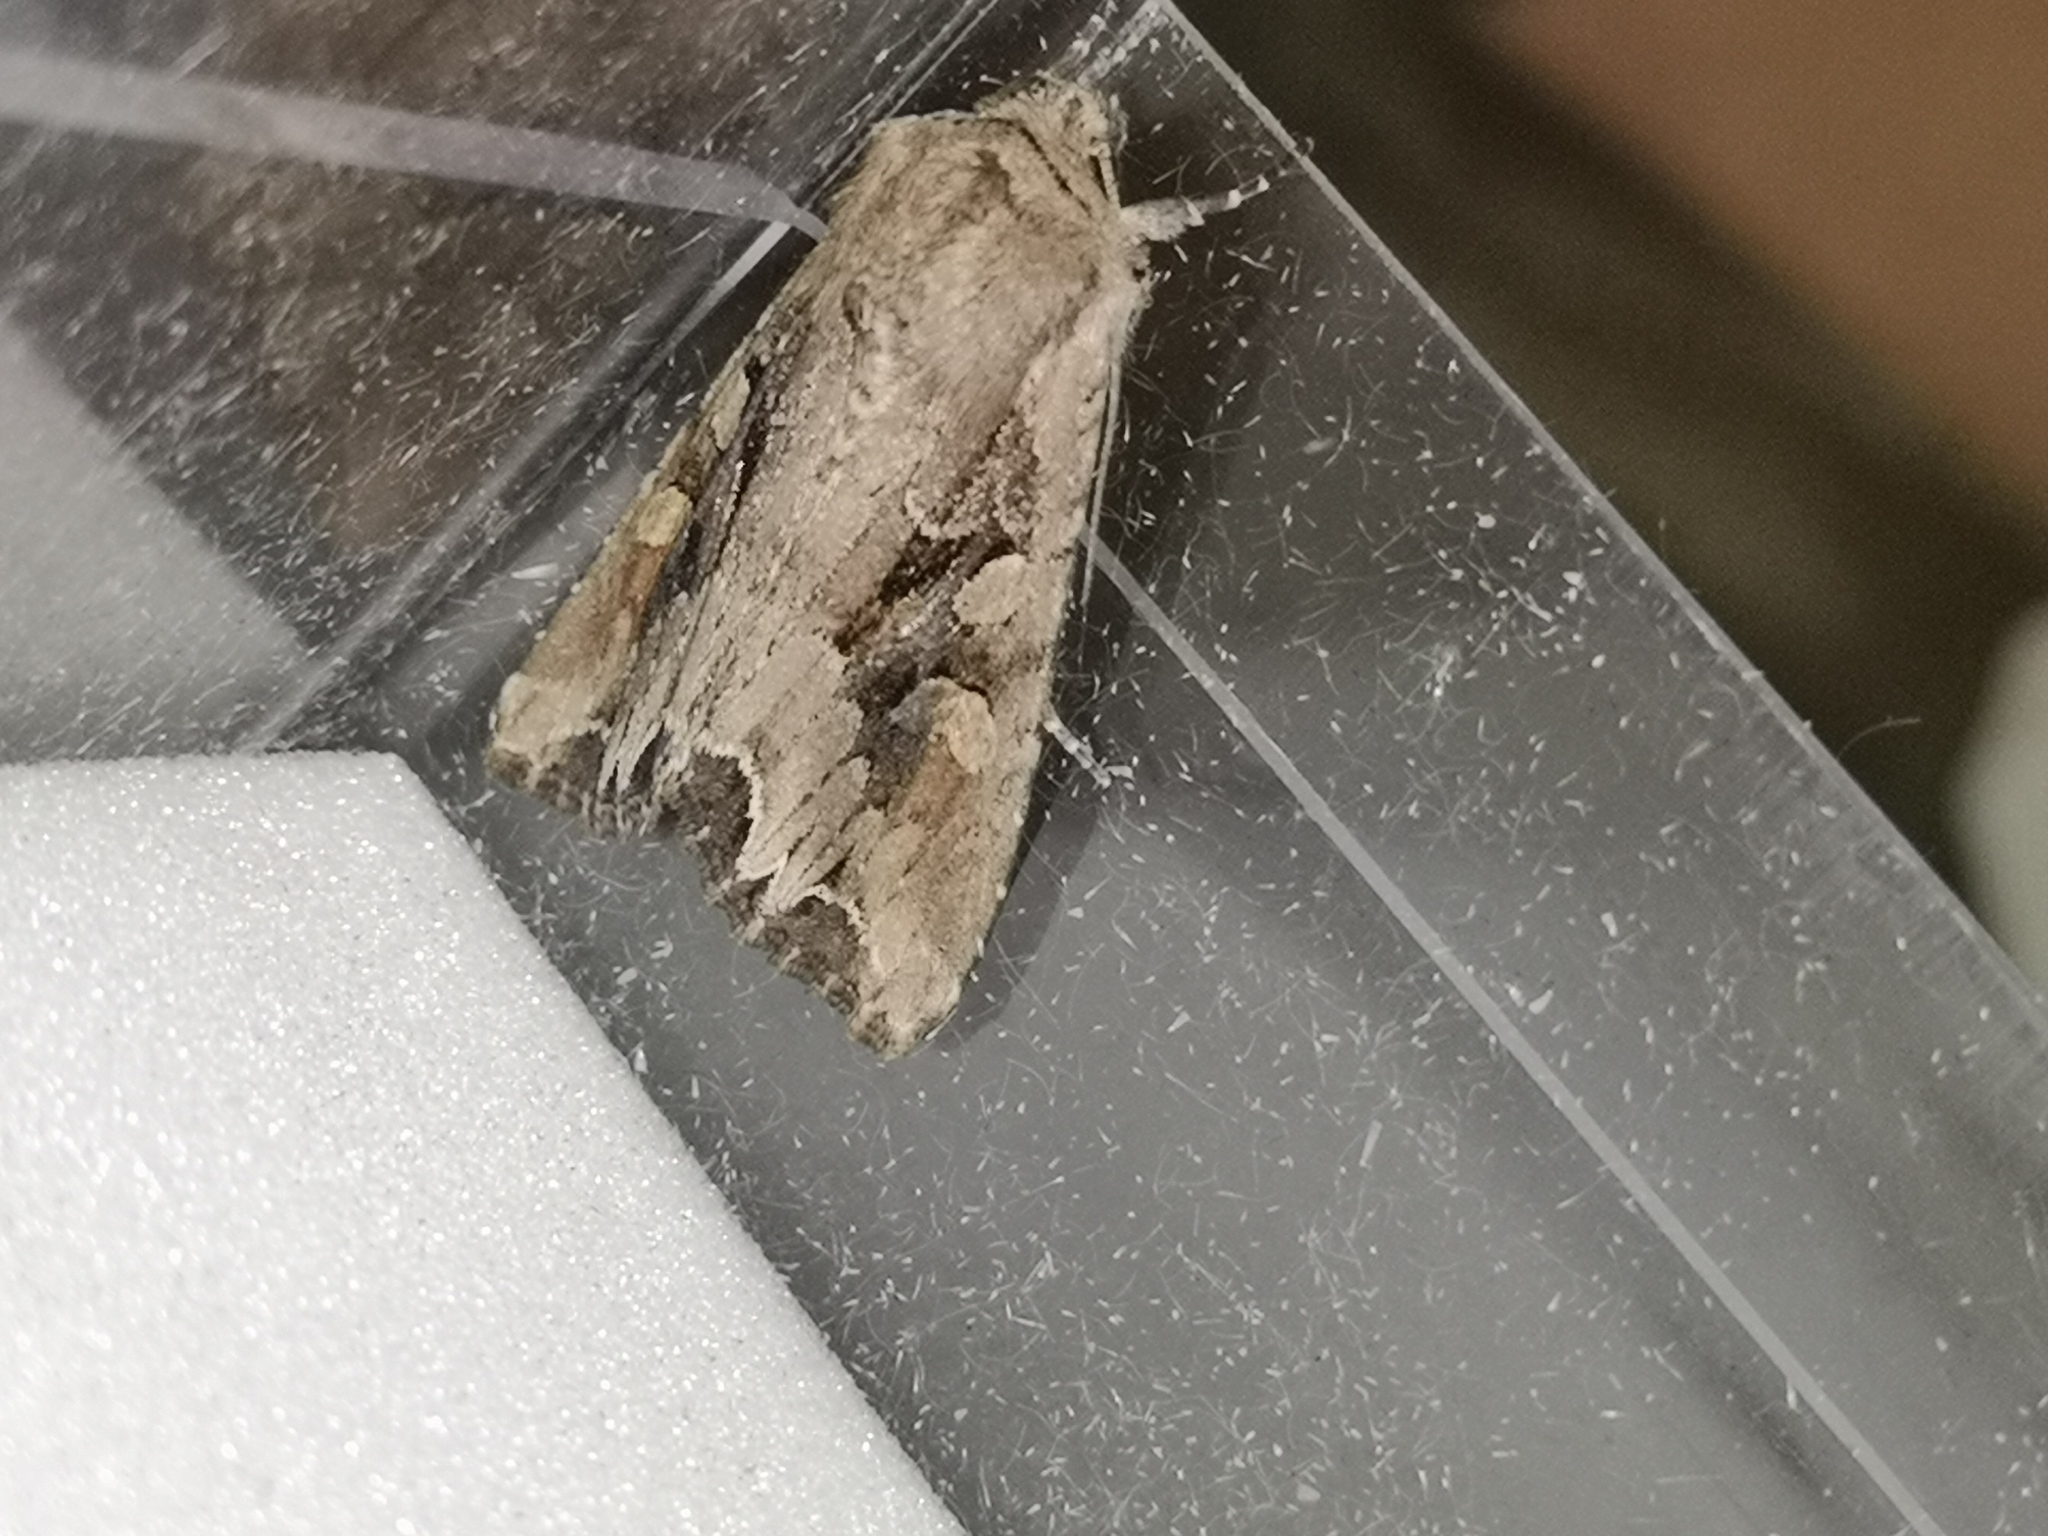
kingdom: Animalia
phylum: Arthropoda
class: Insecta
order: Lepidoptera
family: Noctuidae
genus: Lacanobia
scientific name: Lacanobia w-latinum
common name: Light brocade
